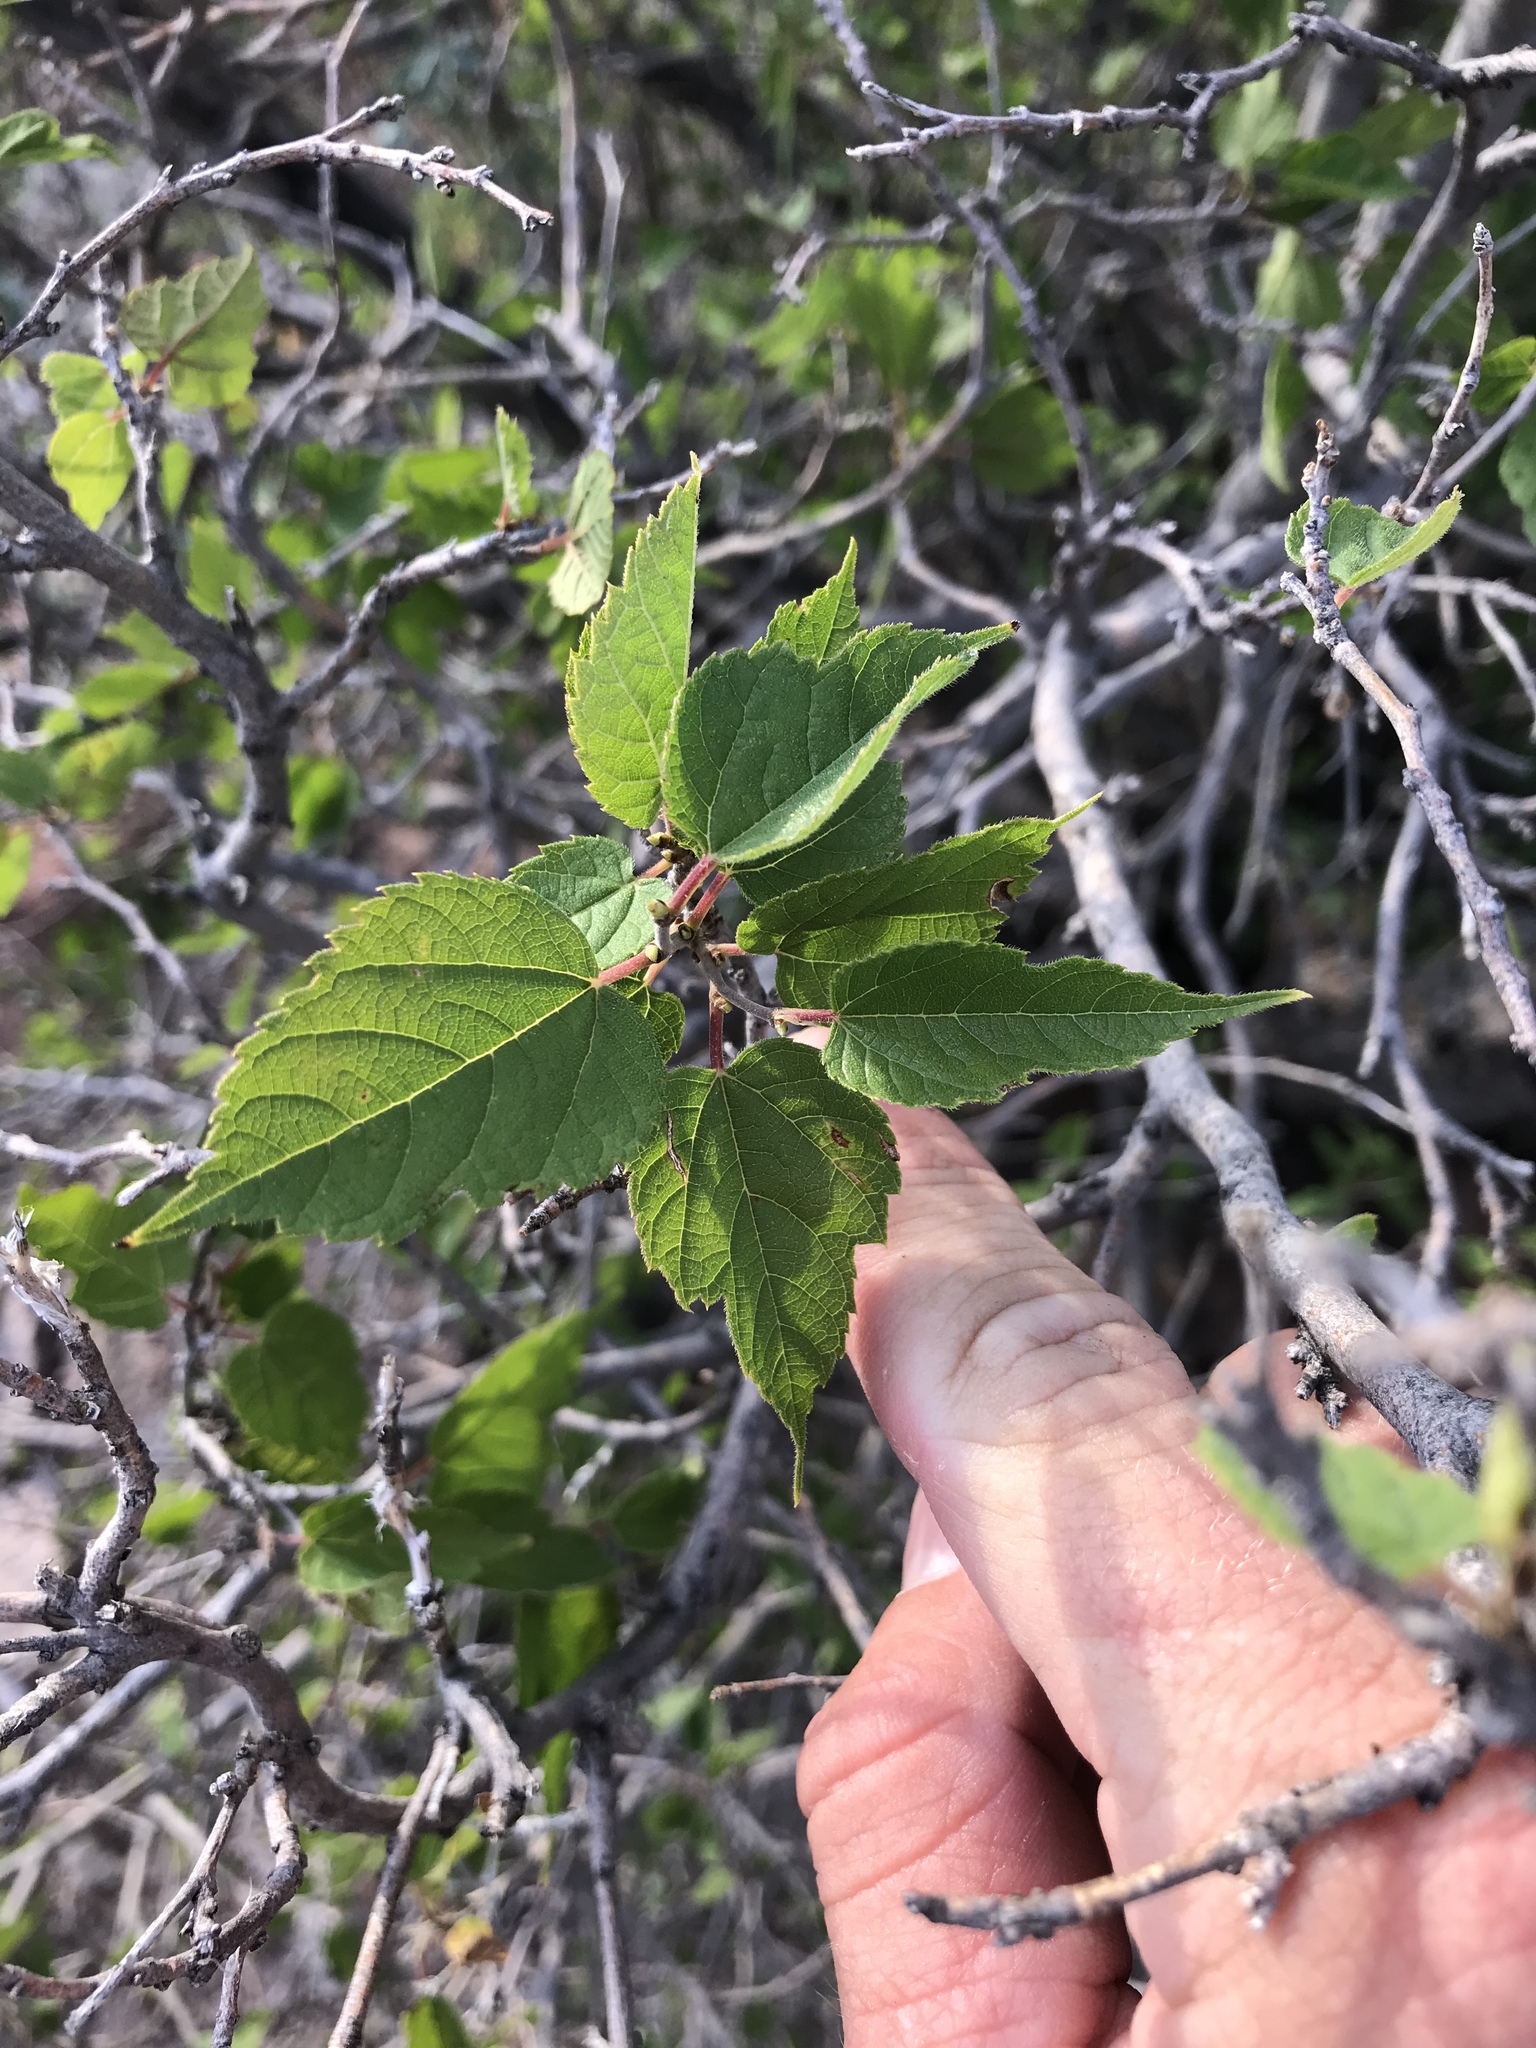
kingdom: Plantae
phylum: Tracheophyta
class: Magnoliopsida
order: Rosales
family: Moraceae
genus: Morus
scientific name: Morus microphylla
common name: Mexican mulberry
